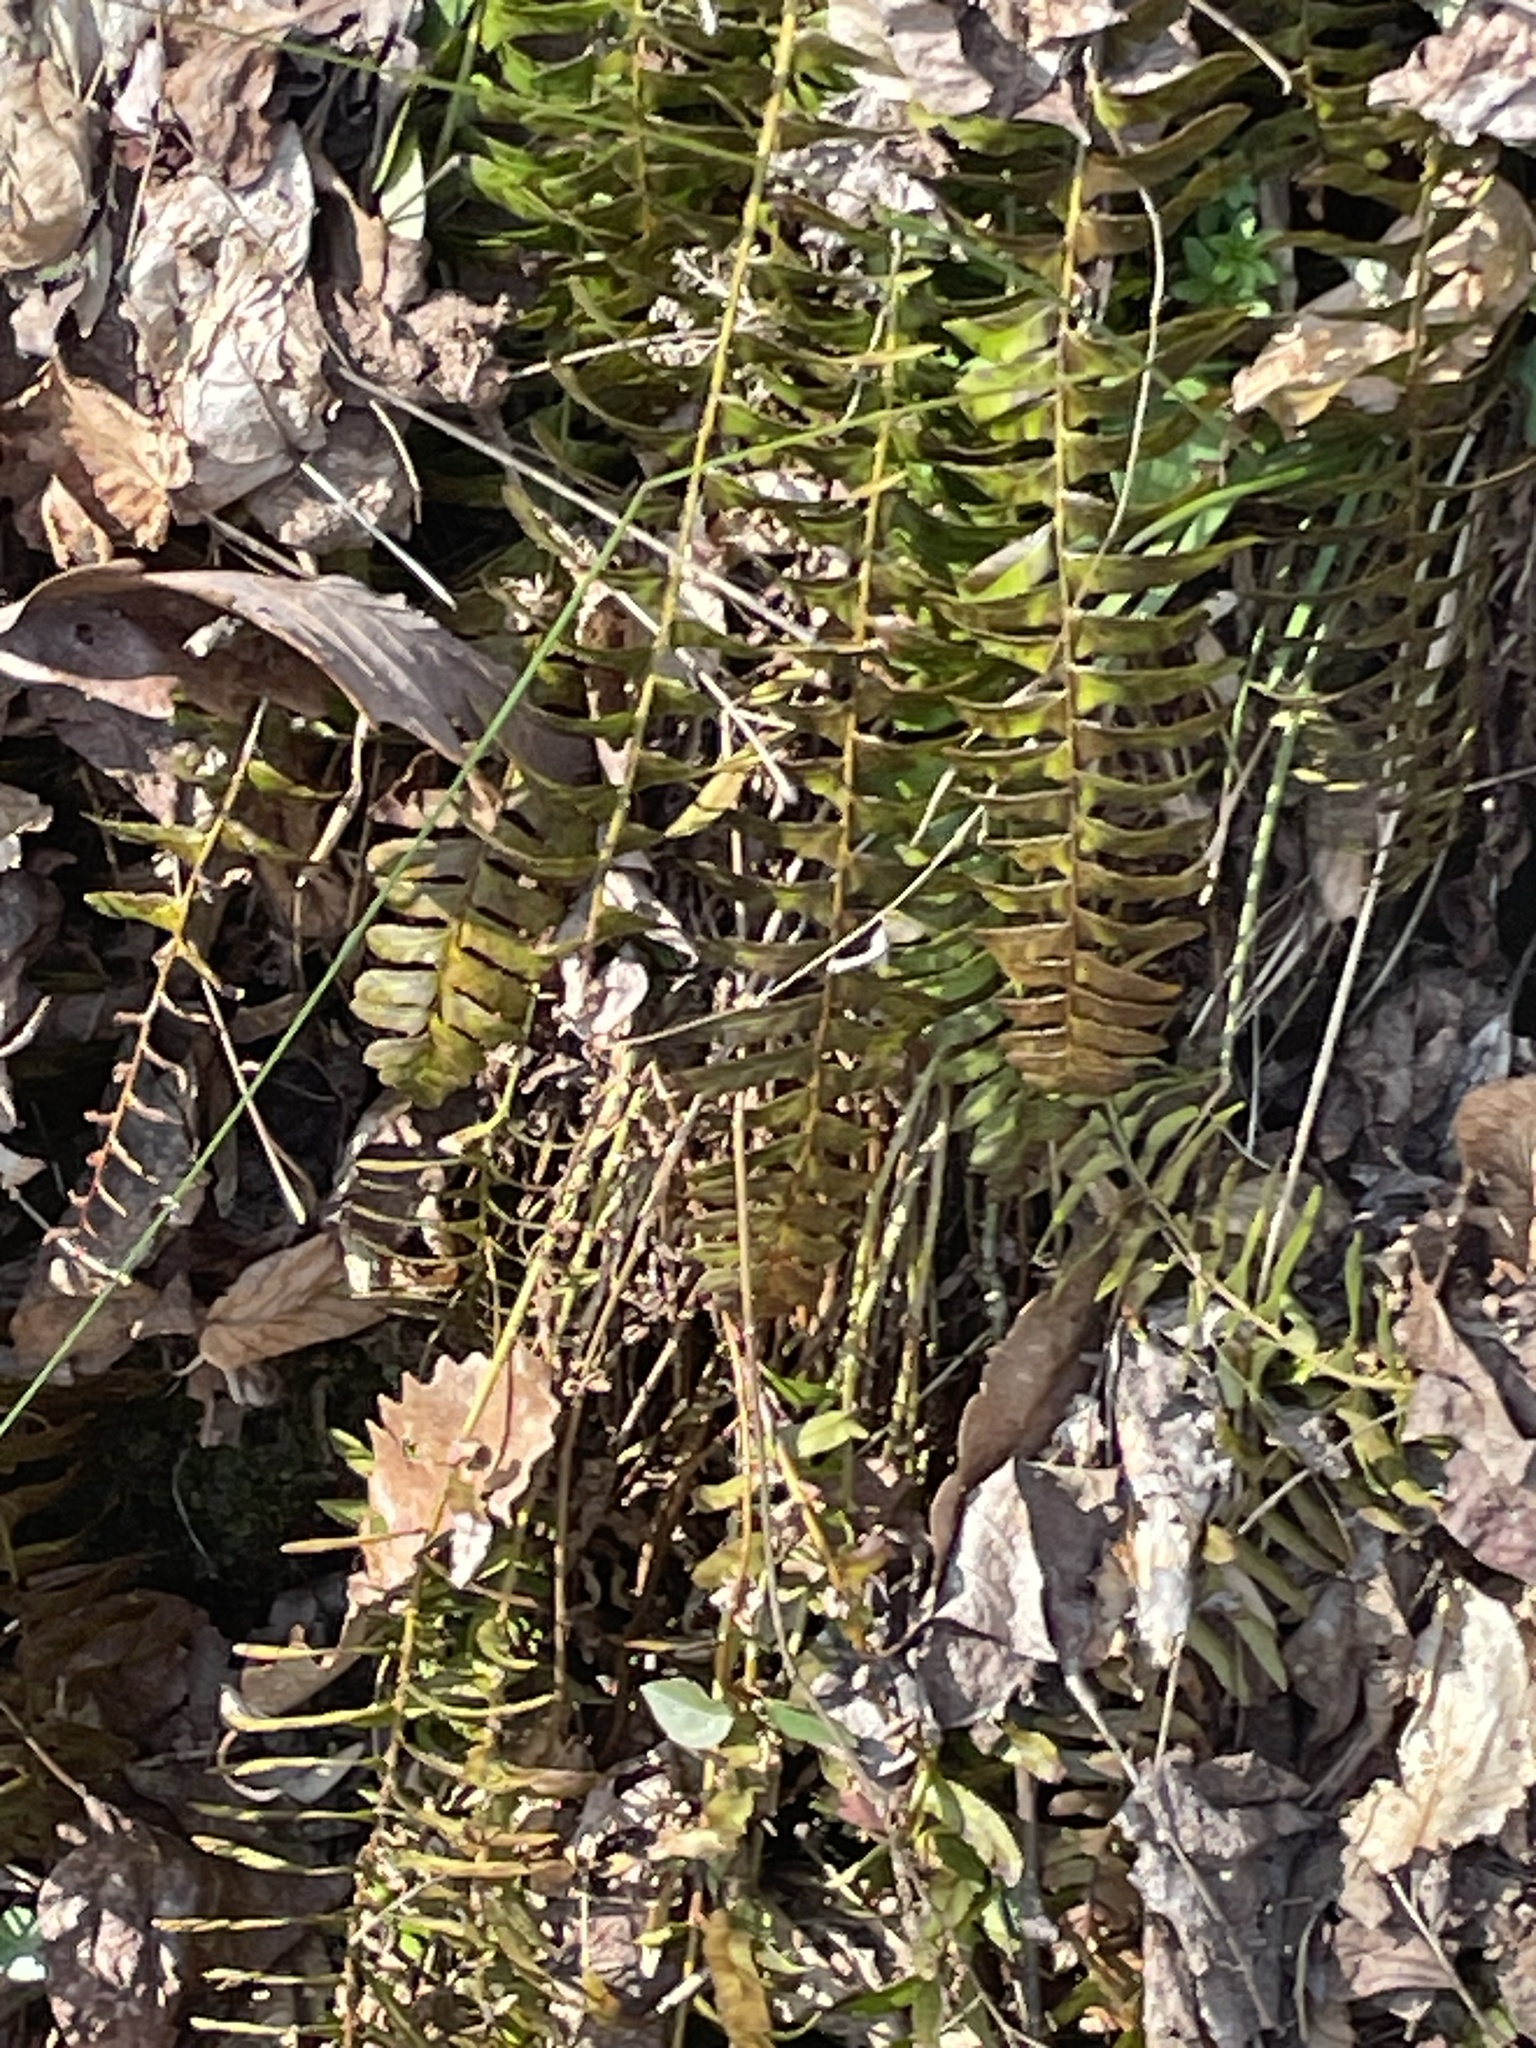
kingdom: Plantae
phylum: Tracheophyta
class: Polypodiopsida
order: Polypodiales
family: Dryopteridaceae
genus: Polystichum
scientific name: Polystichum acrostichoides
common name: Christmas fern
